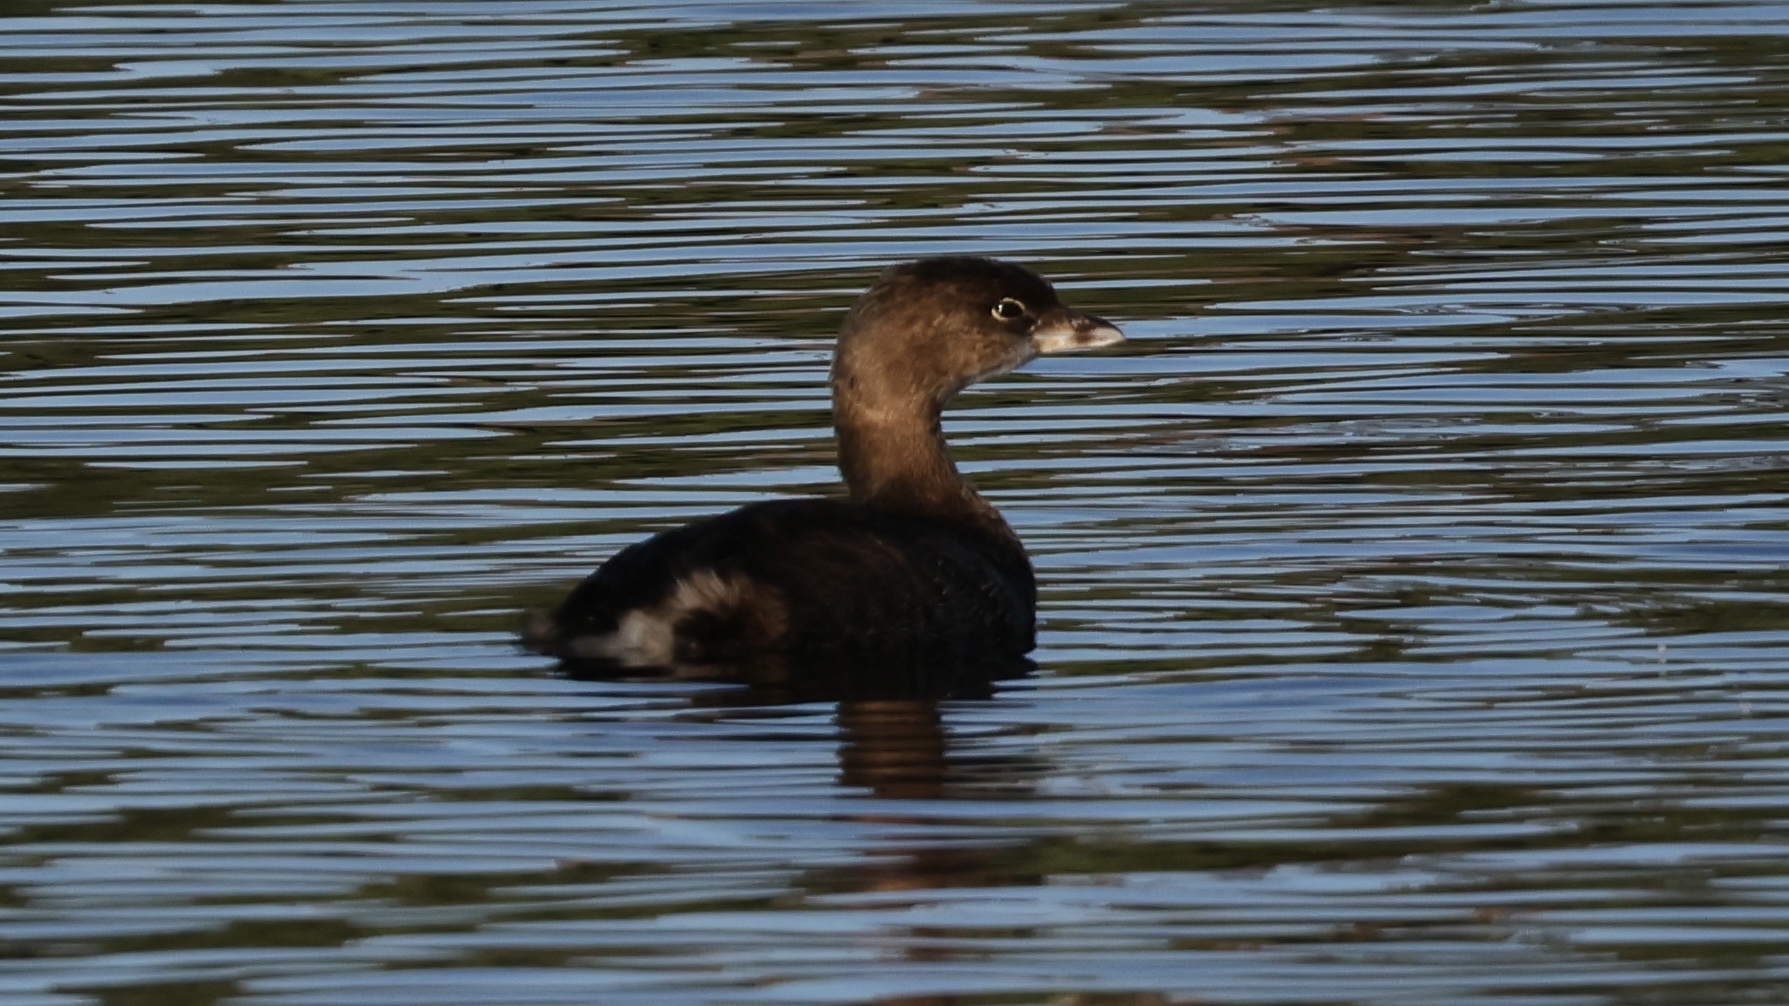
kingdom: Animalia
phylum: Chordata
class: Aves
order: Podicipediformes
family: Podicipedidae
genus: Podilymbus
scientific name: Podilymbus podiceps
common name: Pied-billed grebe
